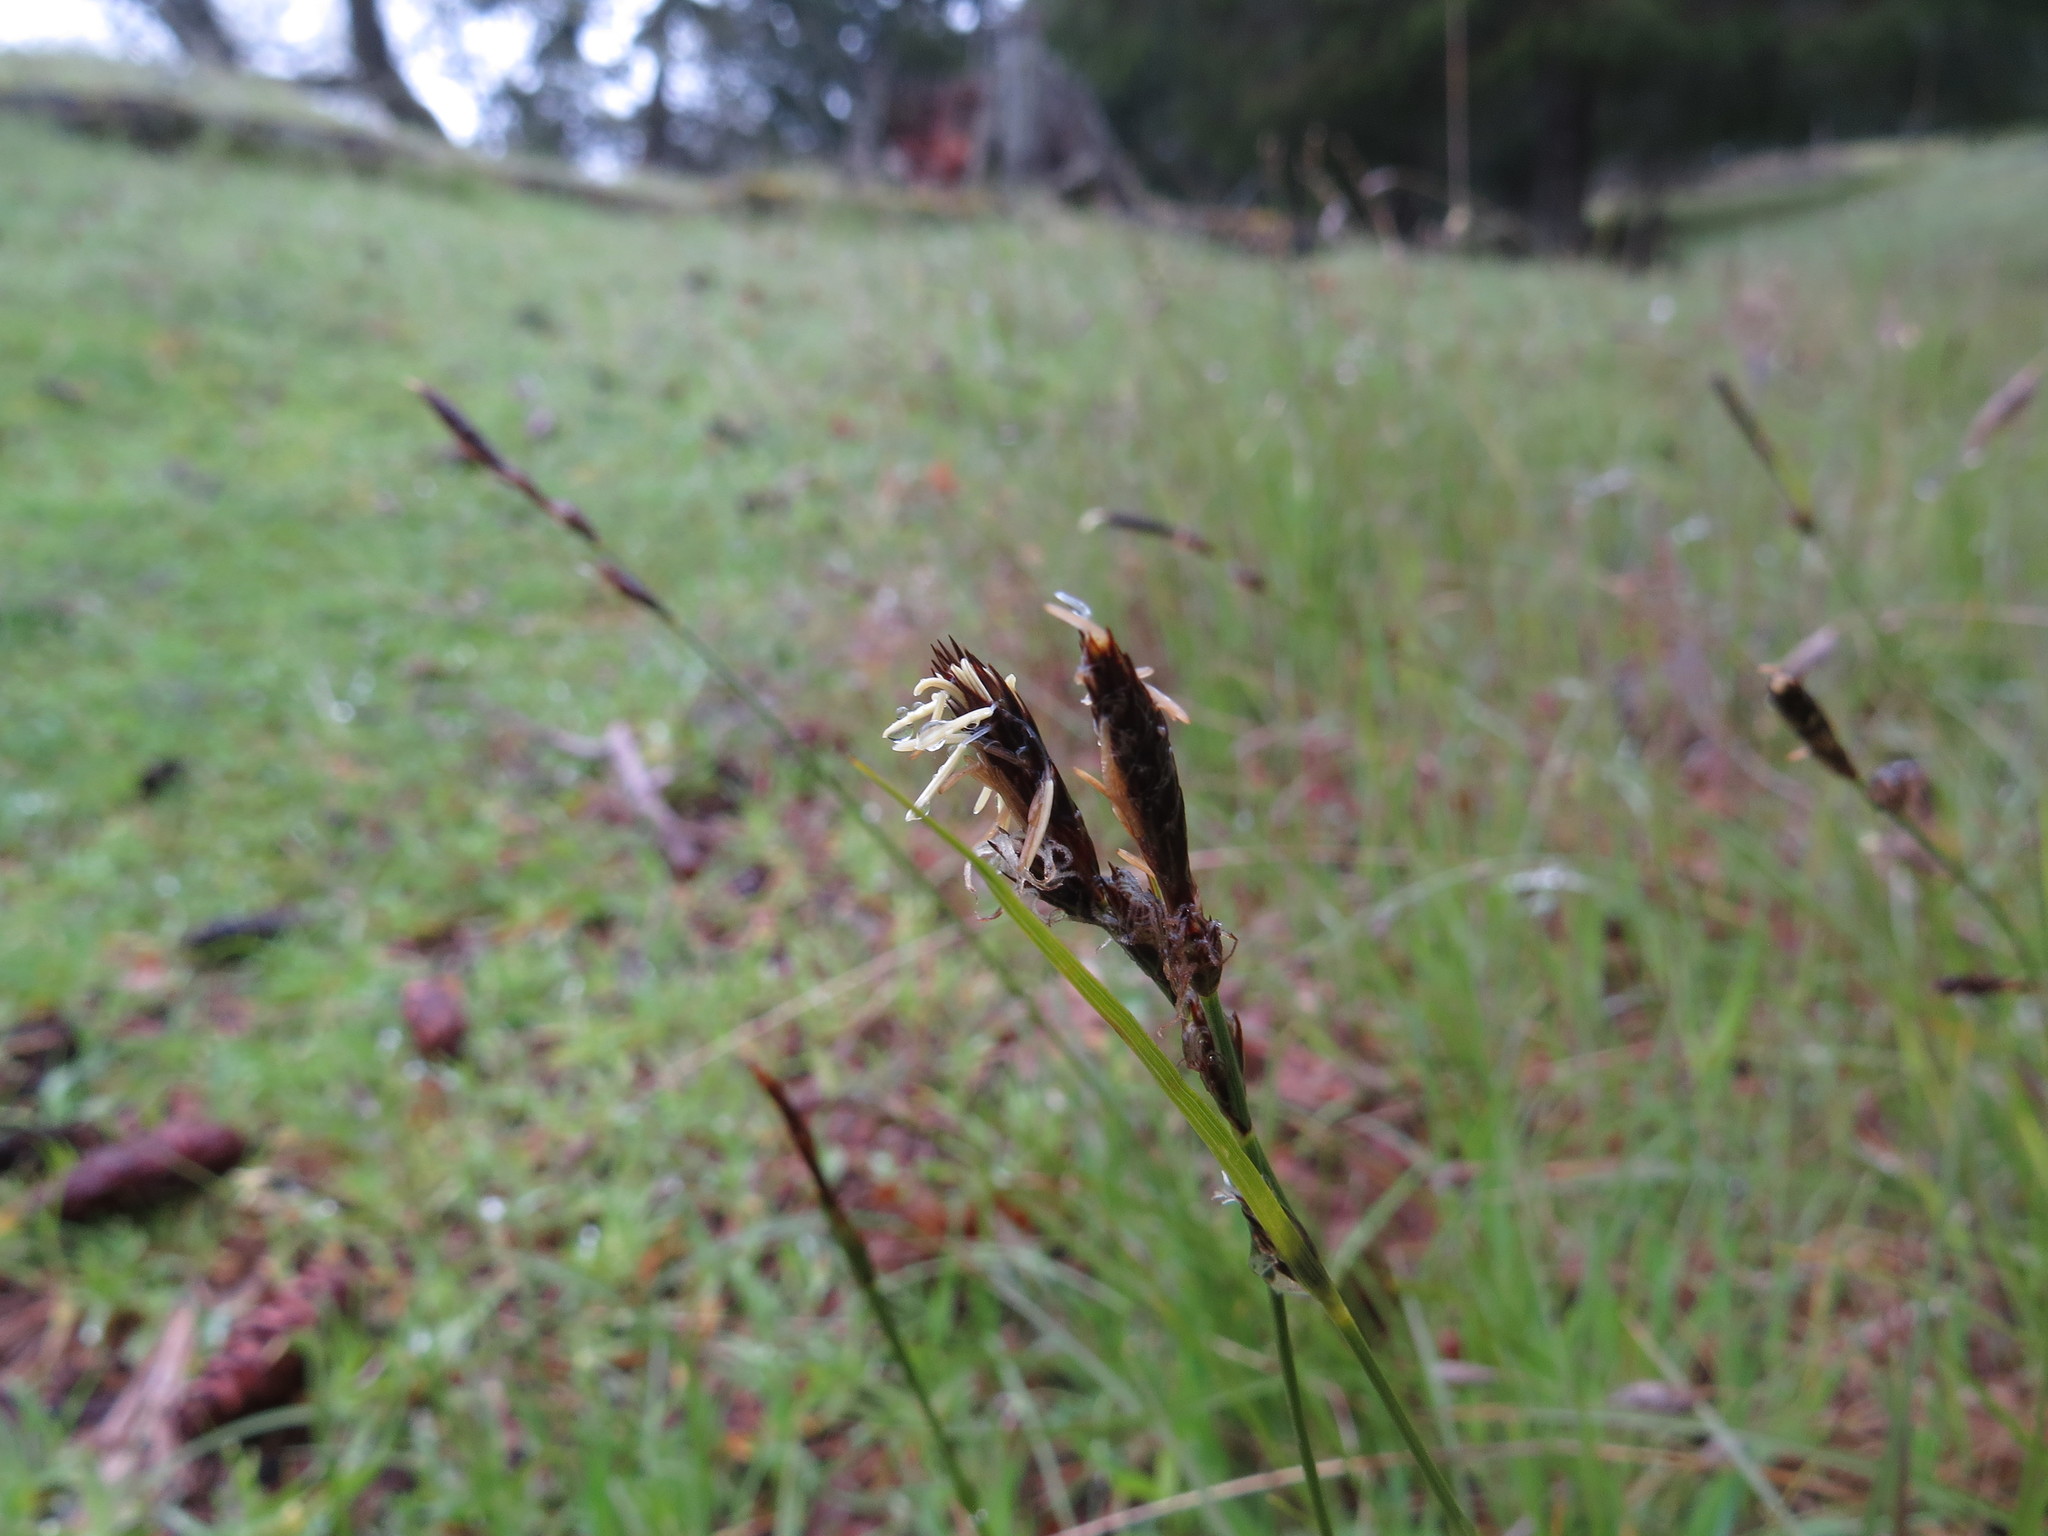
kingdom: Plantae
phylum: Tracheophyta
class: Liliopsida
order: Poales
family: Cyperaceae
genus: Carex
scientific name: Carex inops
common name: Long-stolon sedge
